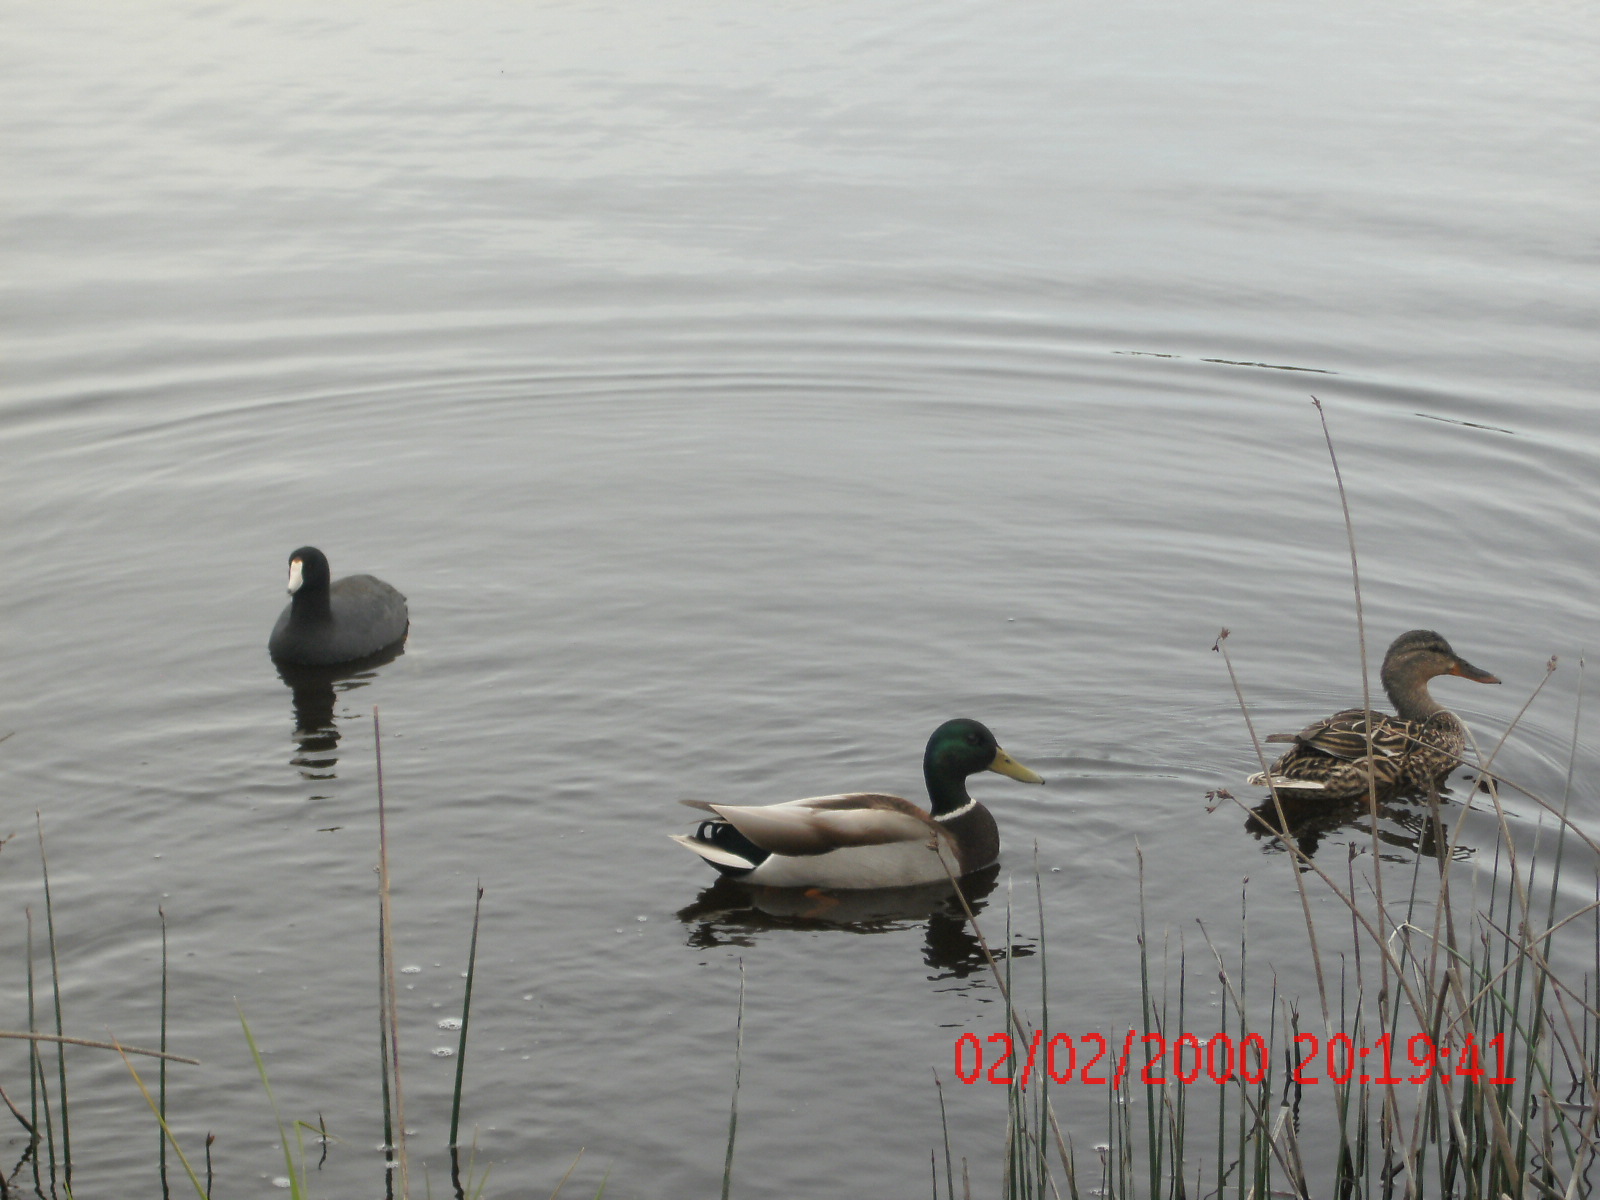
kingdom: Animalia
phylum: Chordata
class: Aves
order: Gruiformes
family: Rallidae
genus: Fulica
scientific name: Fulica americana
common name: American coot
